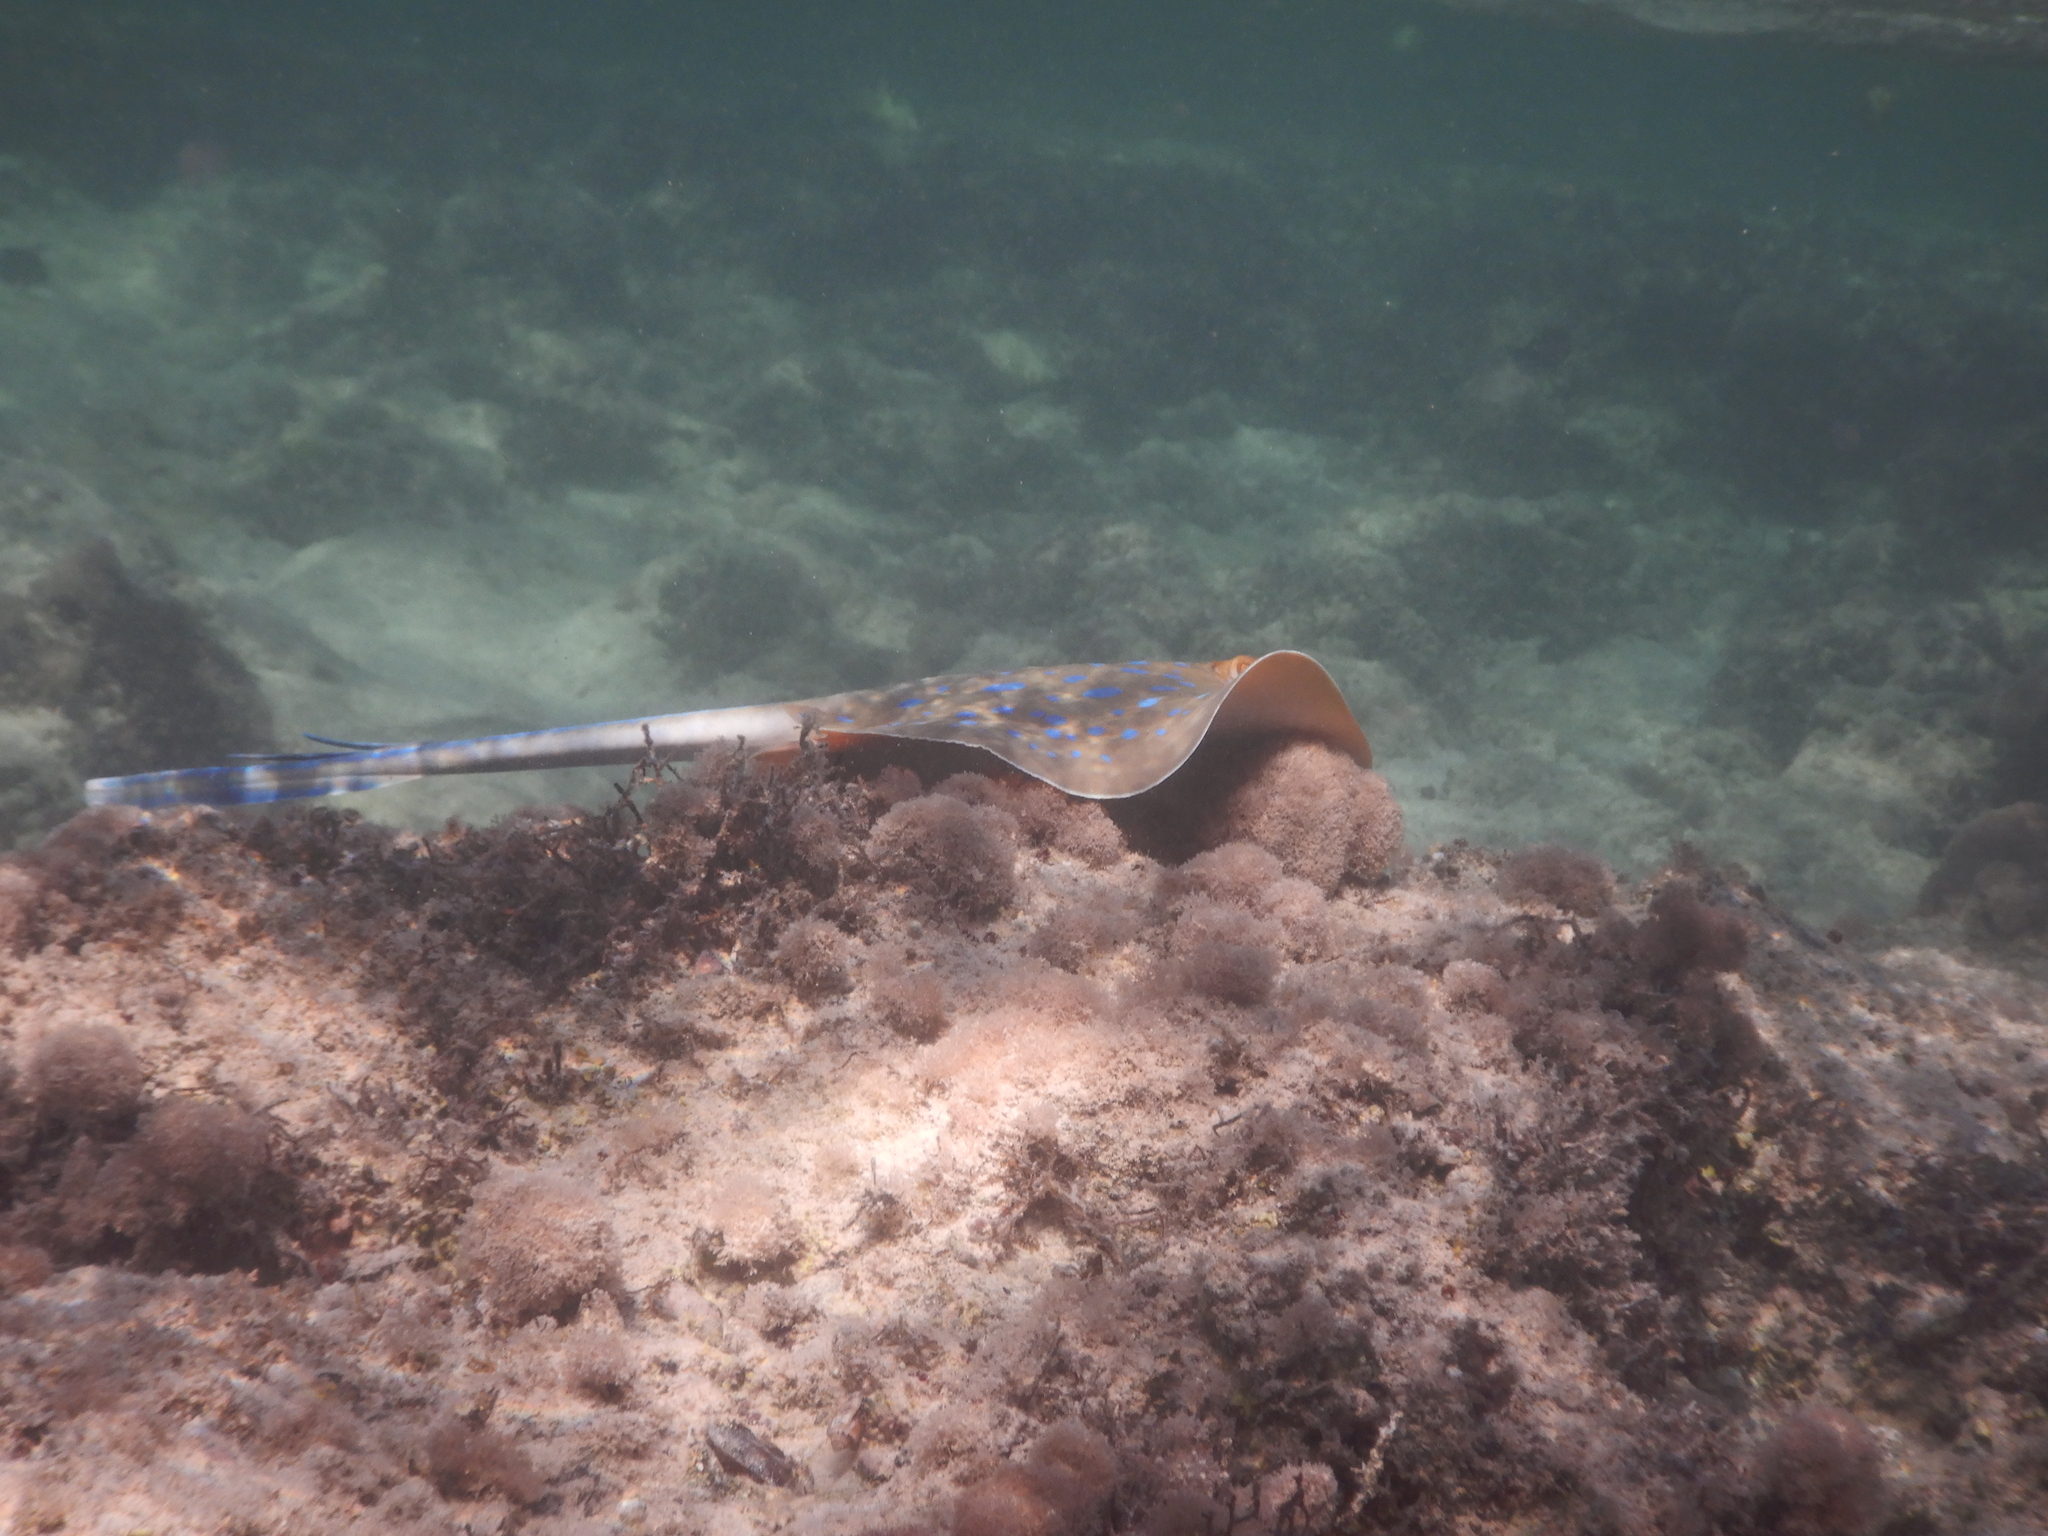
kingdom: Animalia
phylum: Chordata
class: Elasmobranchii
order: Myliobatiformes
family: Dasyatidae
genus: Taeniura
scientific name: Taeniura lymma
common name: Bluespotted ribbontail ray
